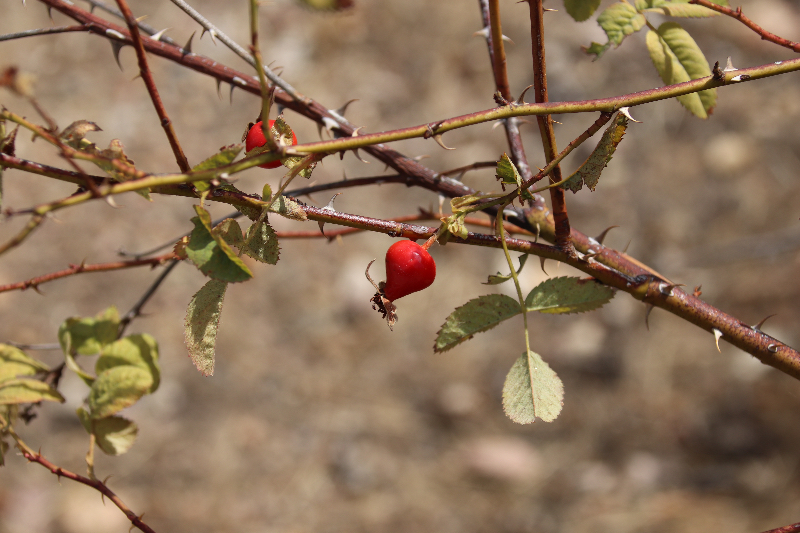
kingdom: Plantae
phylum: Tracheophyta
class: Magnoliopsida
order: Rosales
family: Rosaceae
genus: Rosa
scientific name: Rosa californica
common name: California rose
